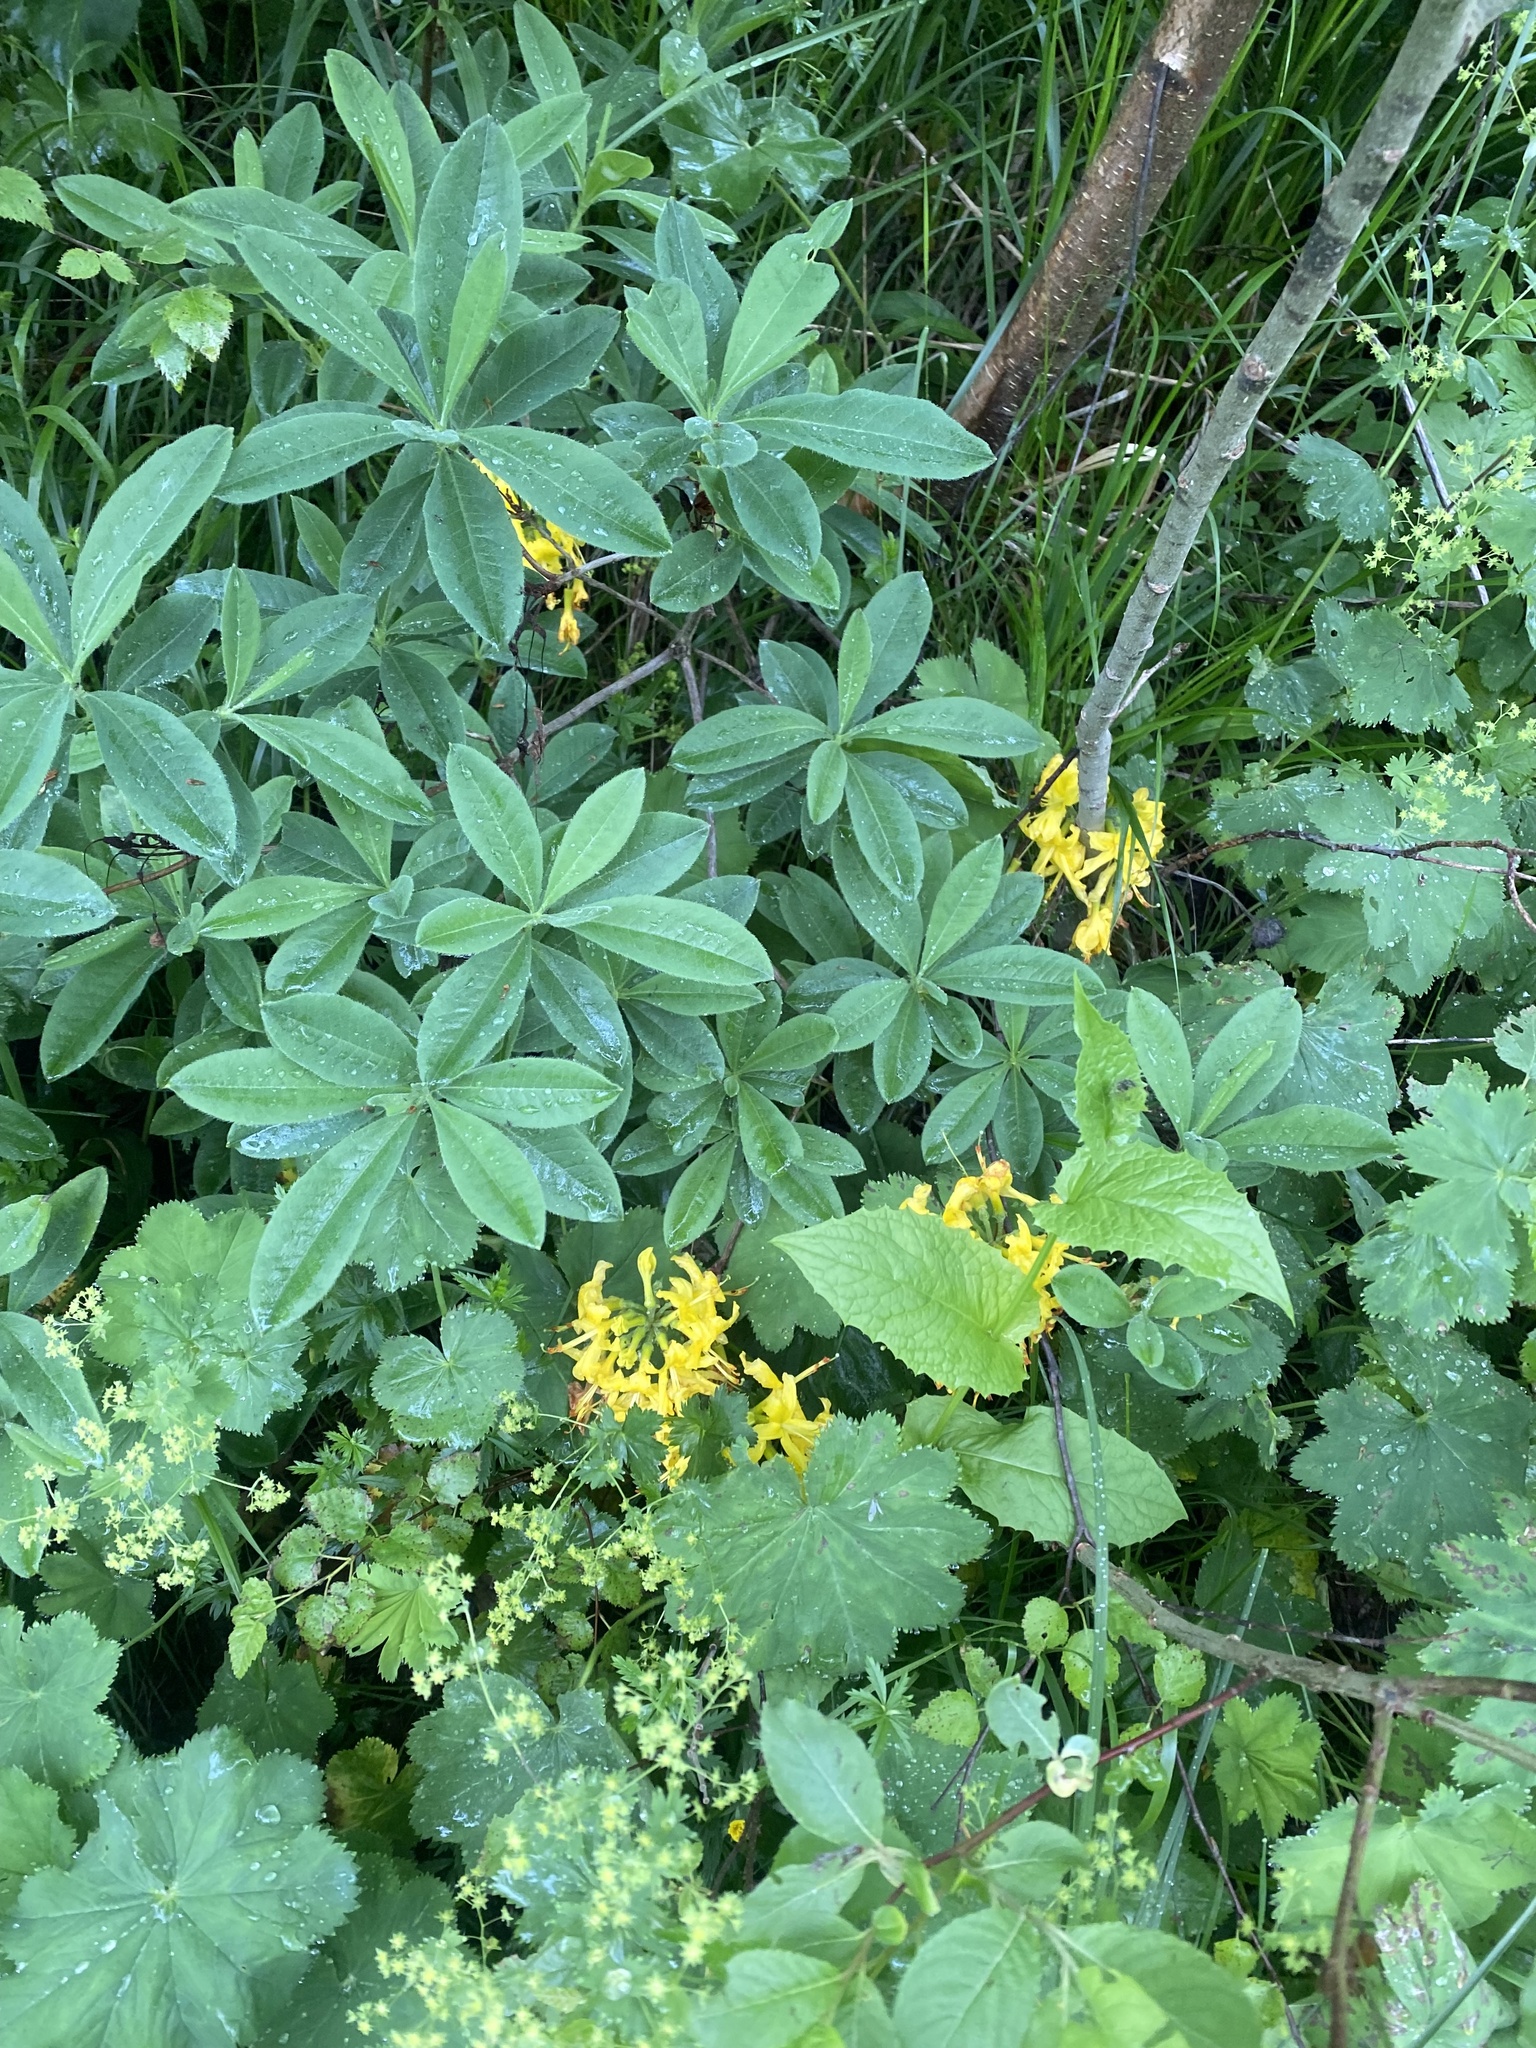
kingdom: Plantae
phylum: Tracheophyta
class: Magnoliopsida
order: Ericales
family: Ericaceae
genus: Rhododendron
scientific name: Rhododendron luteum
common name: Yellow azalea
